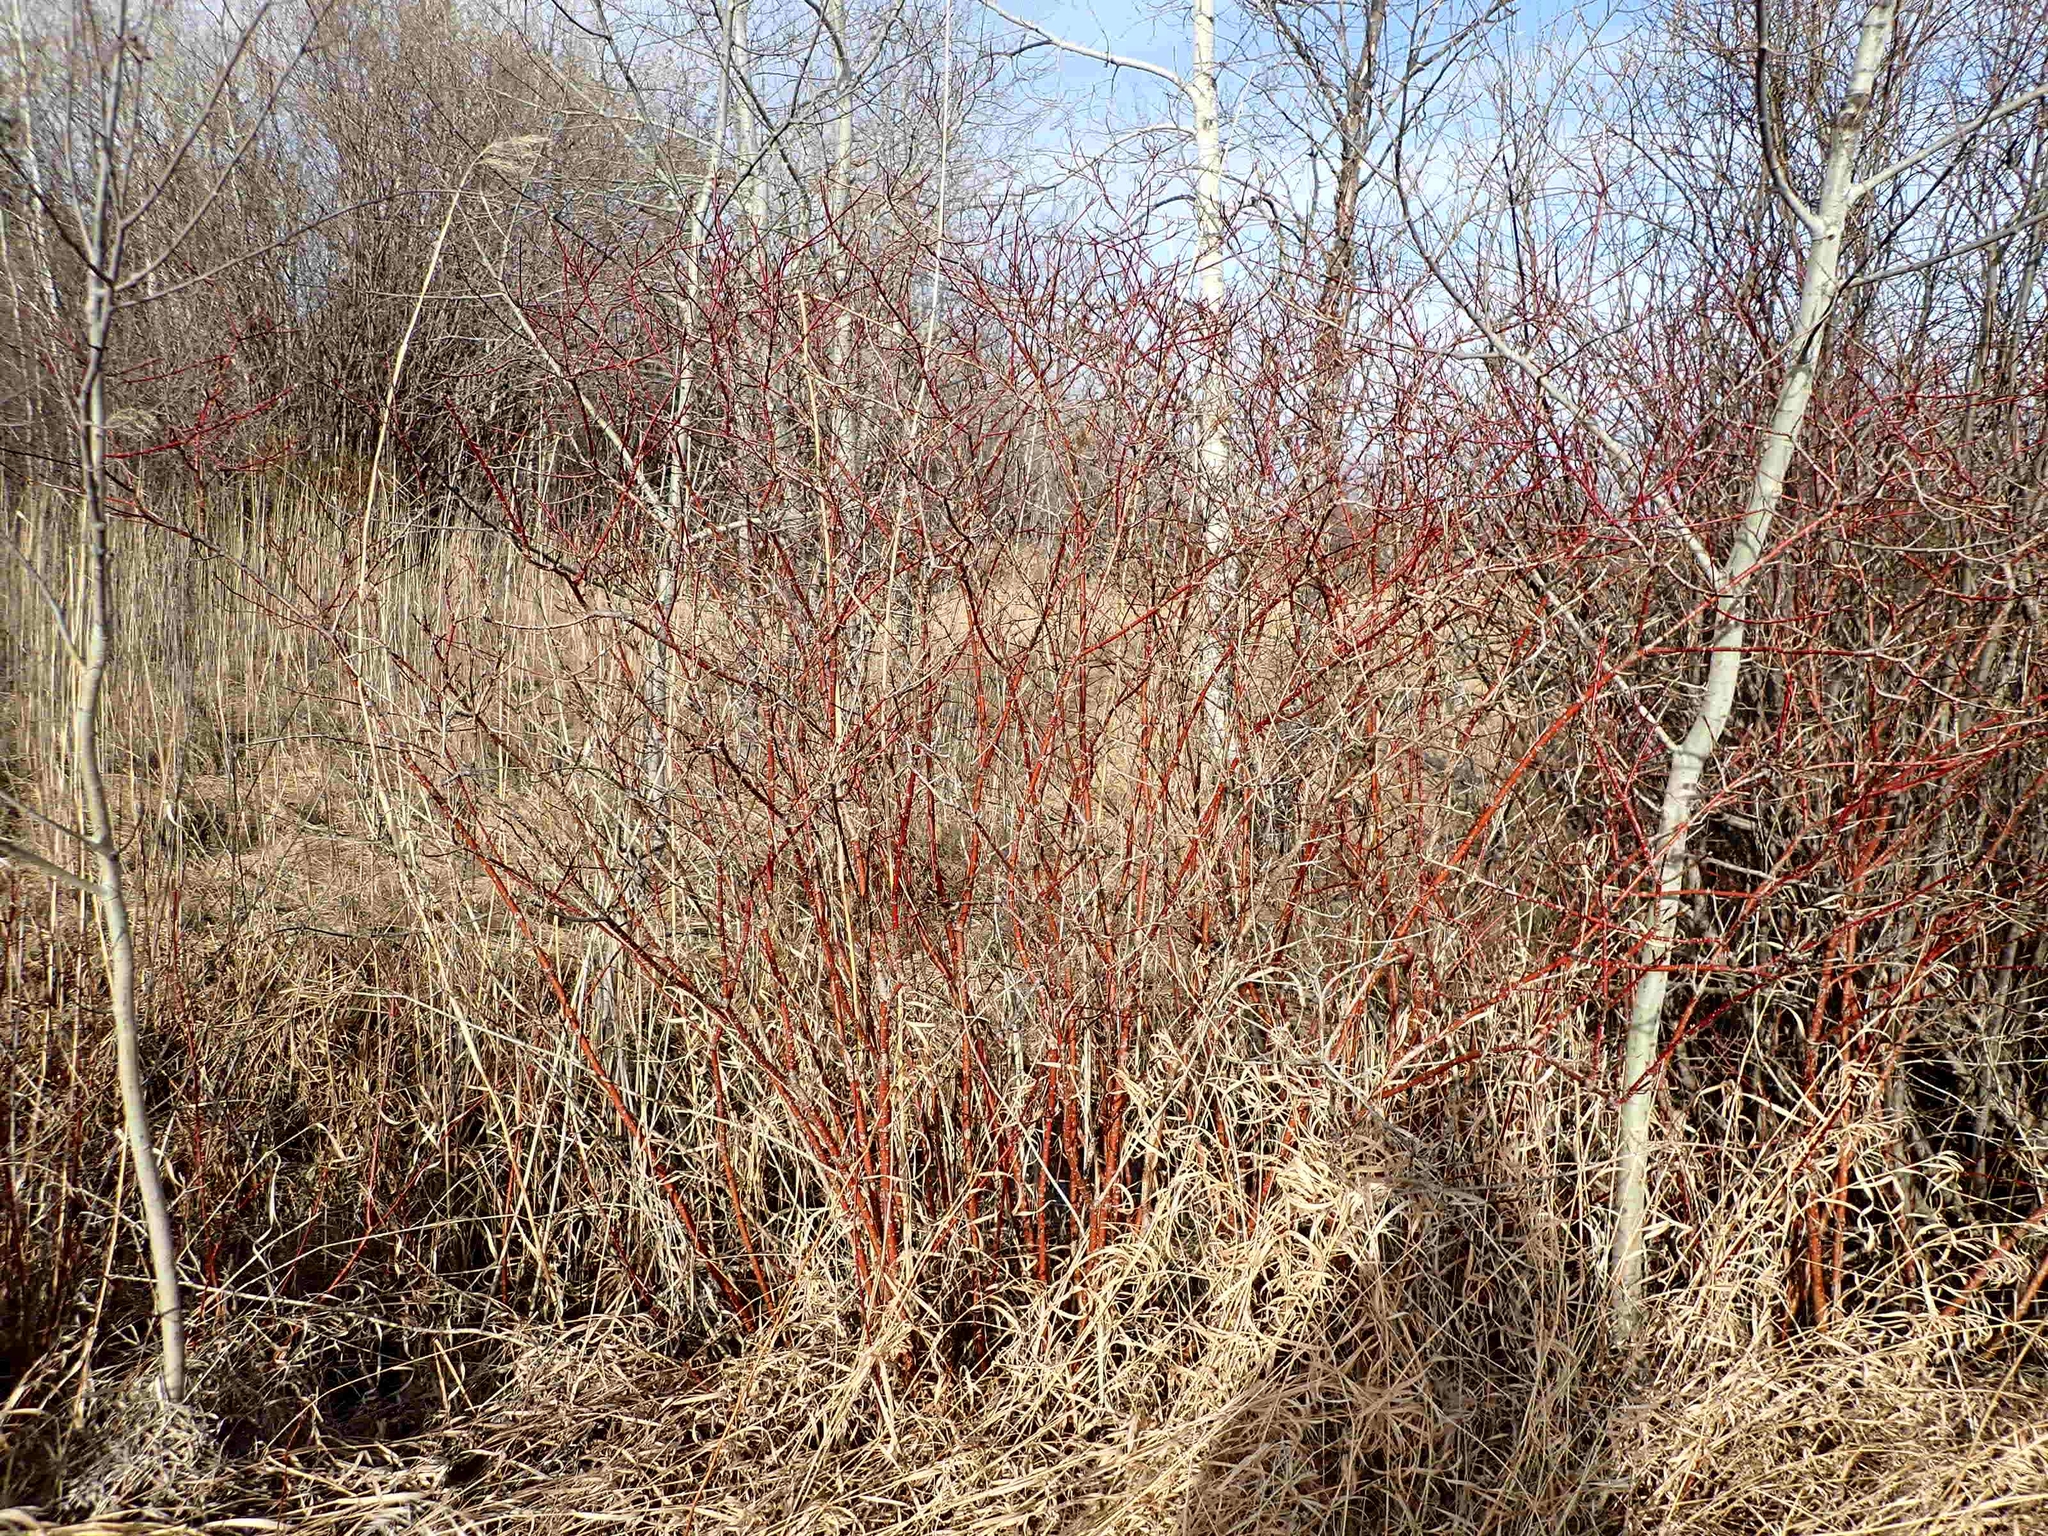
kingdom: Plantae
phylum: Tracheophyta
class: Magnoliopsida
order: Cornales
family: Cornaceae
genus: Cornus
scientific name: Cornus sericea
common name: Red-osier dogwood
